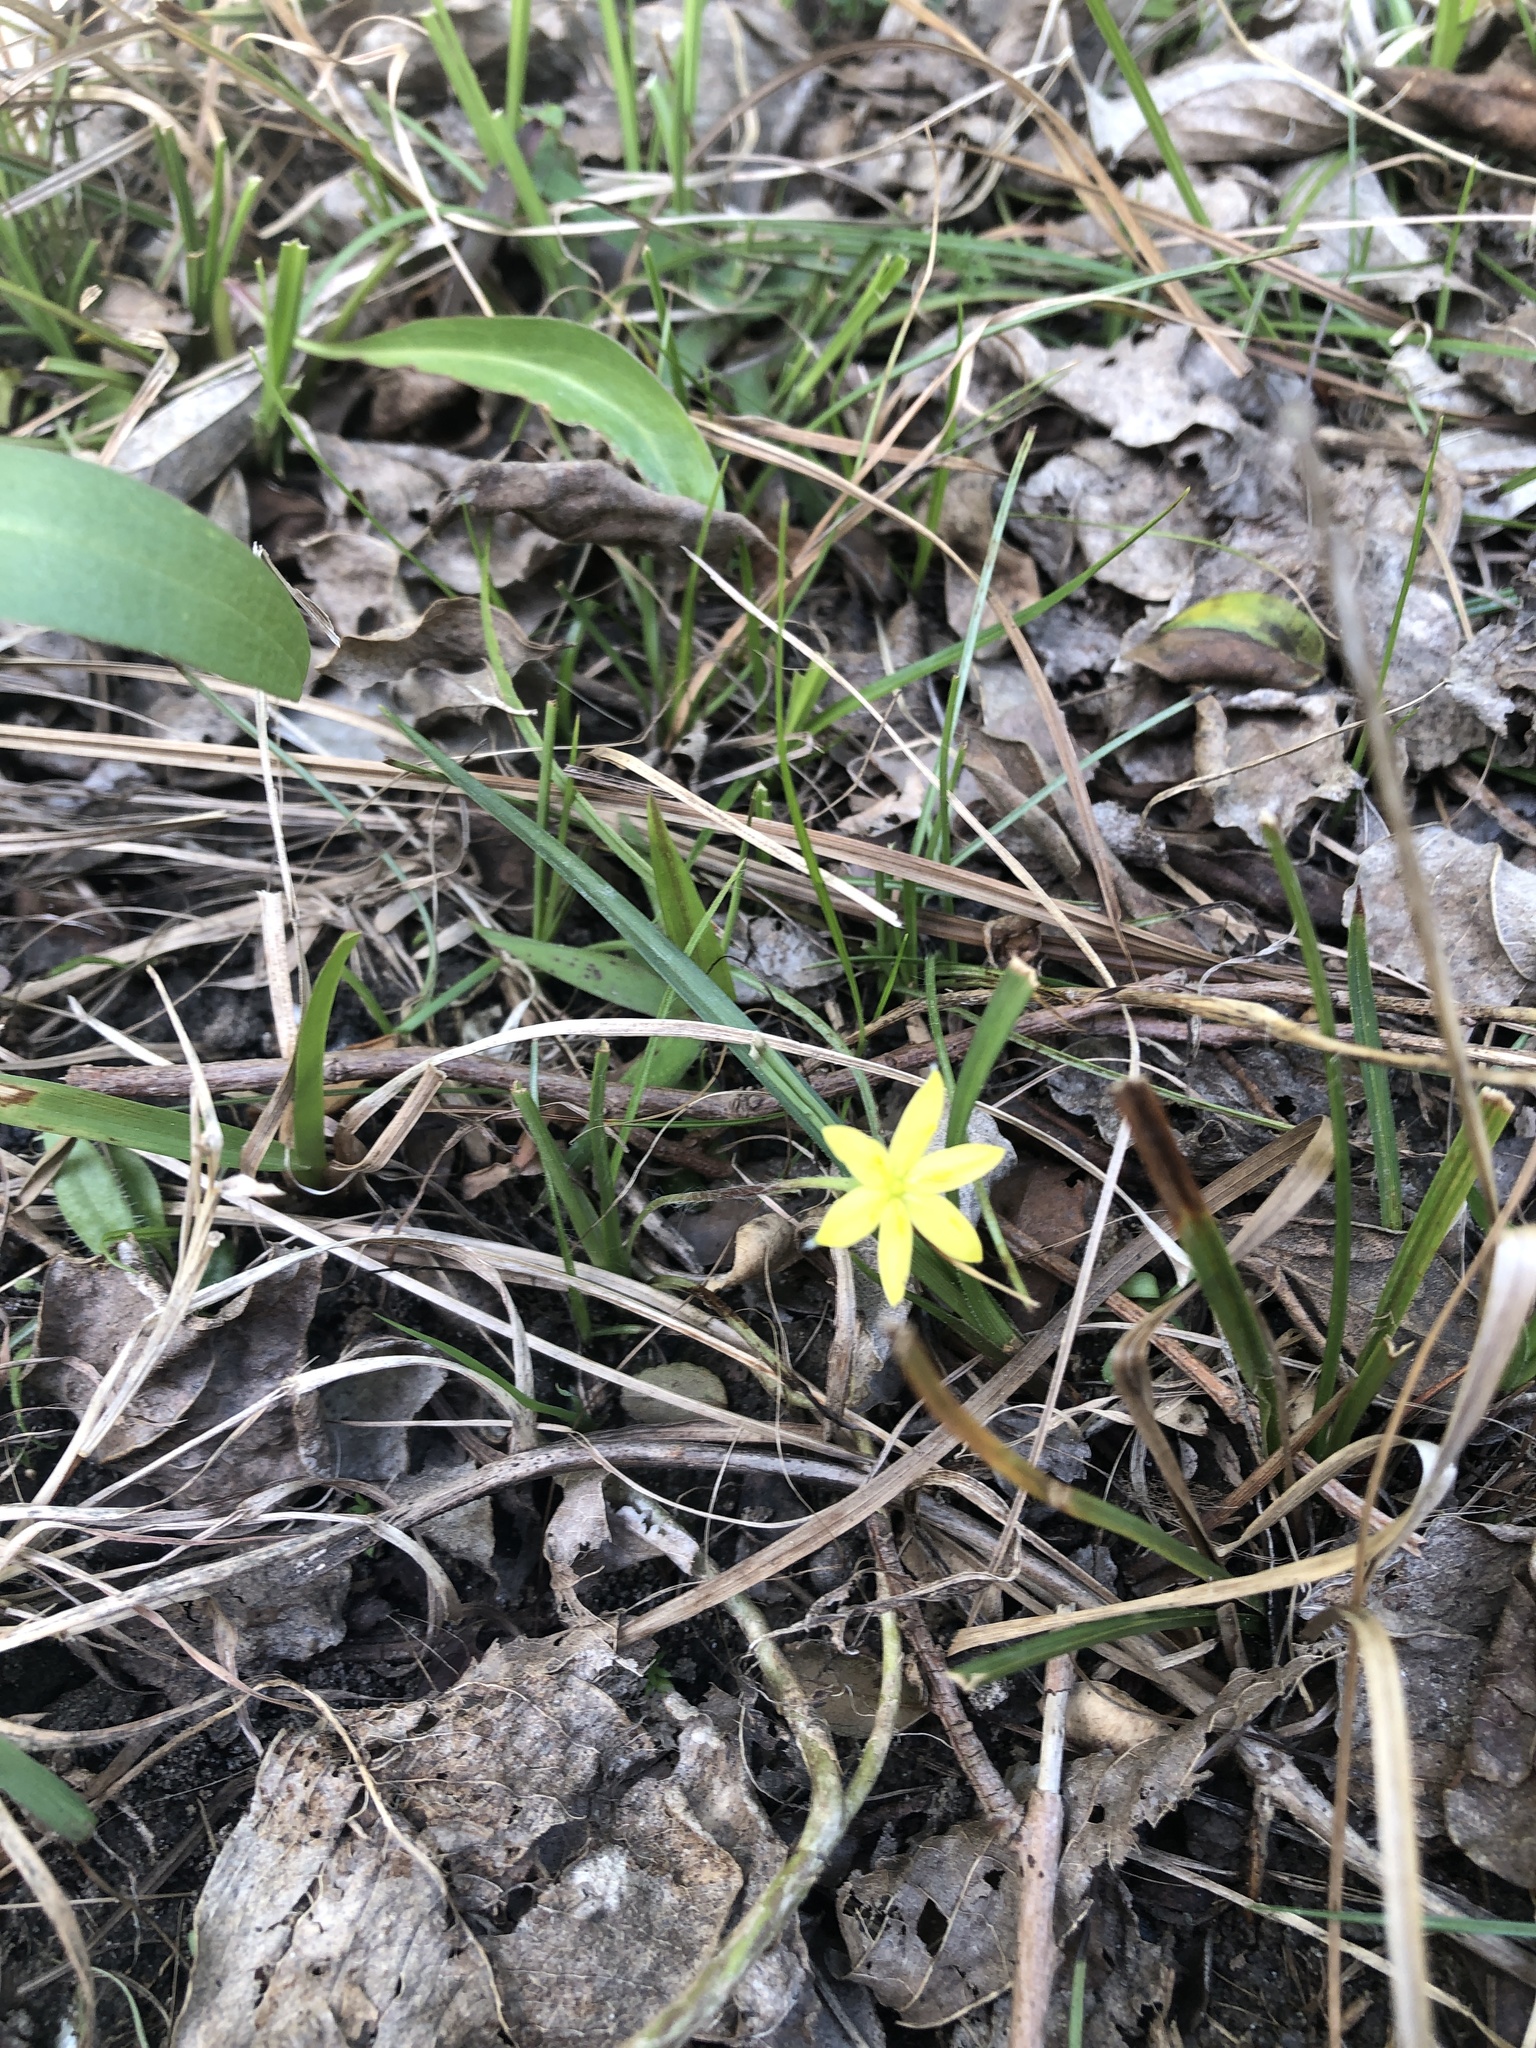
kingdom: Plantae
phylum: Tracheophyta
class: Liliopsida
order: Asparagales
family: Hypoxidaceae
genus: Hypoxis
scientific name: Hypoxis hirsuta
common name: Common goldstar
